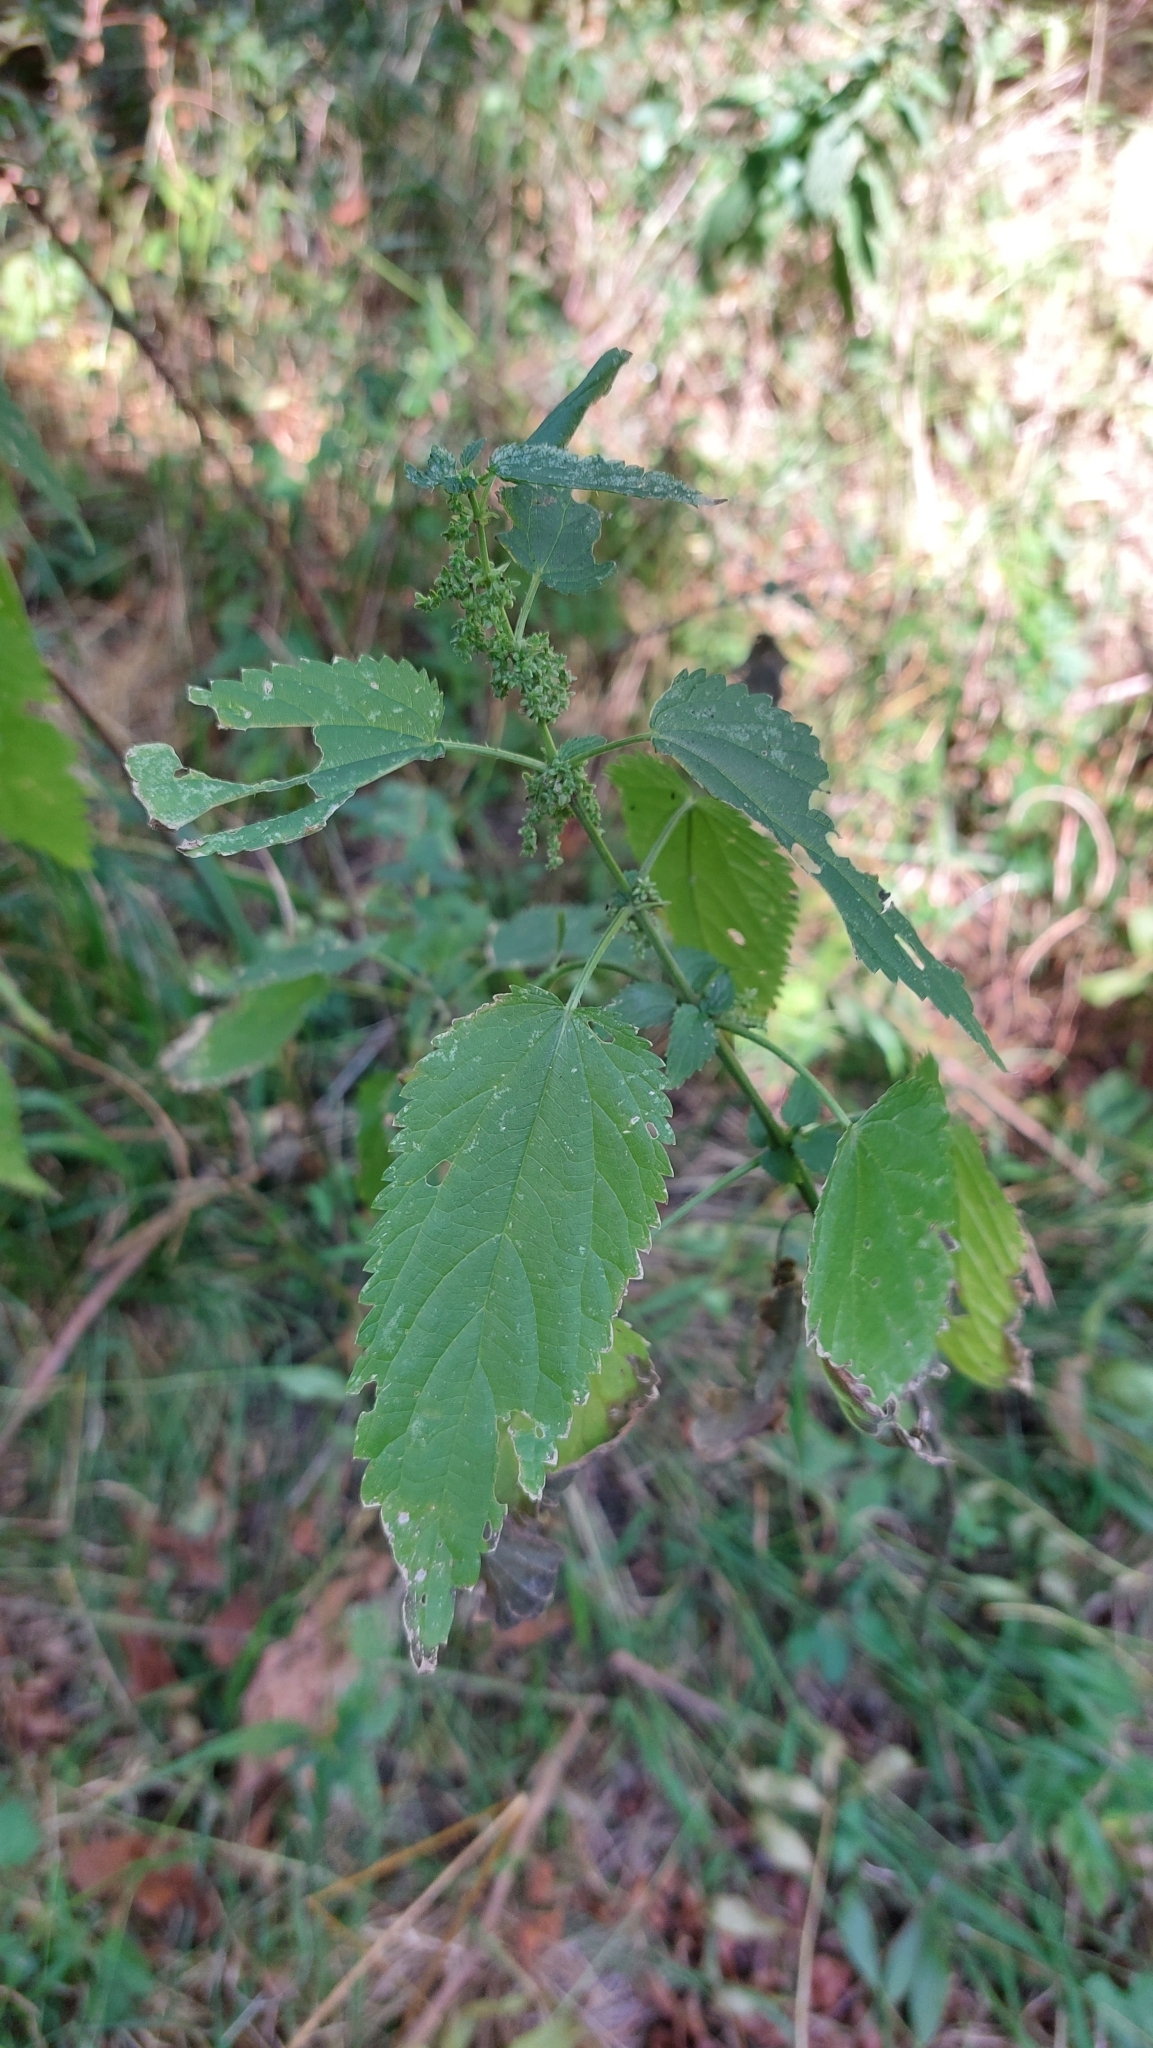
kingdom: Plantae
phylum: Tracheophyta
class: Magnoliopsida
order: Rosales
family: Urticaceae
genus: Urtica
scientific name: Urtica dioica
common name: Common nettle
